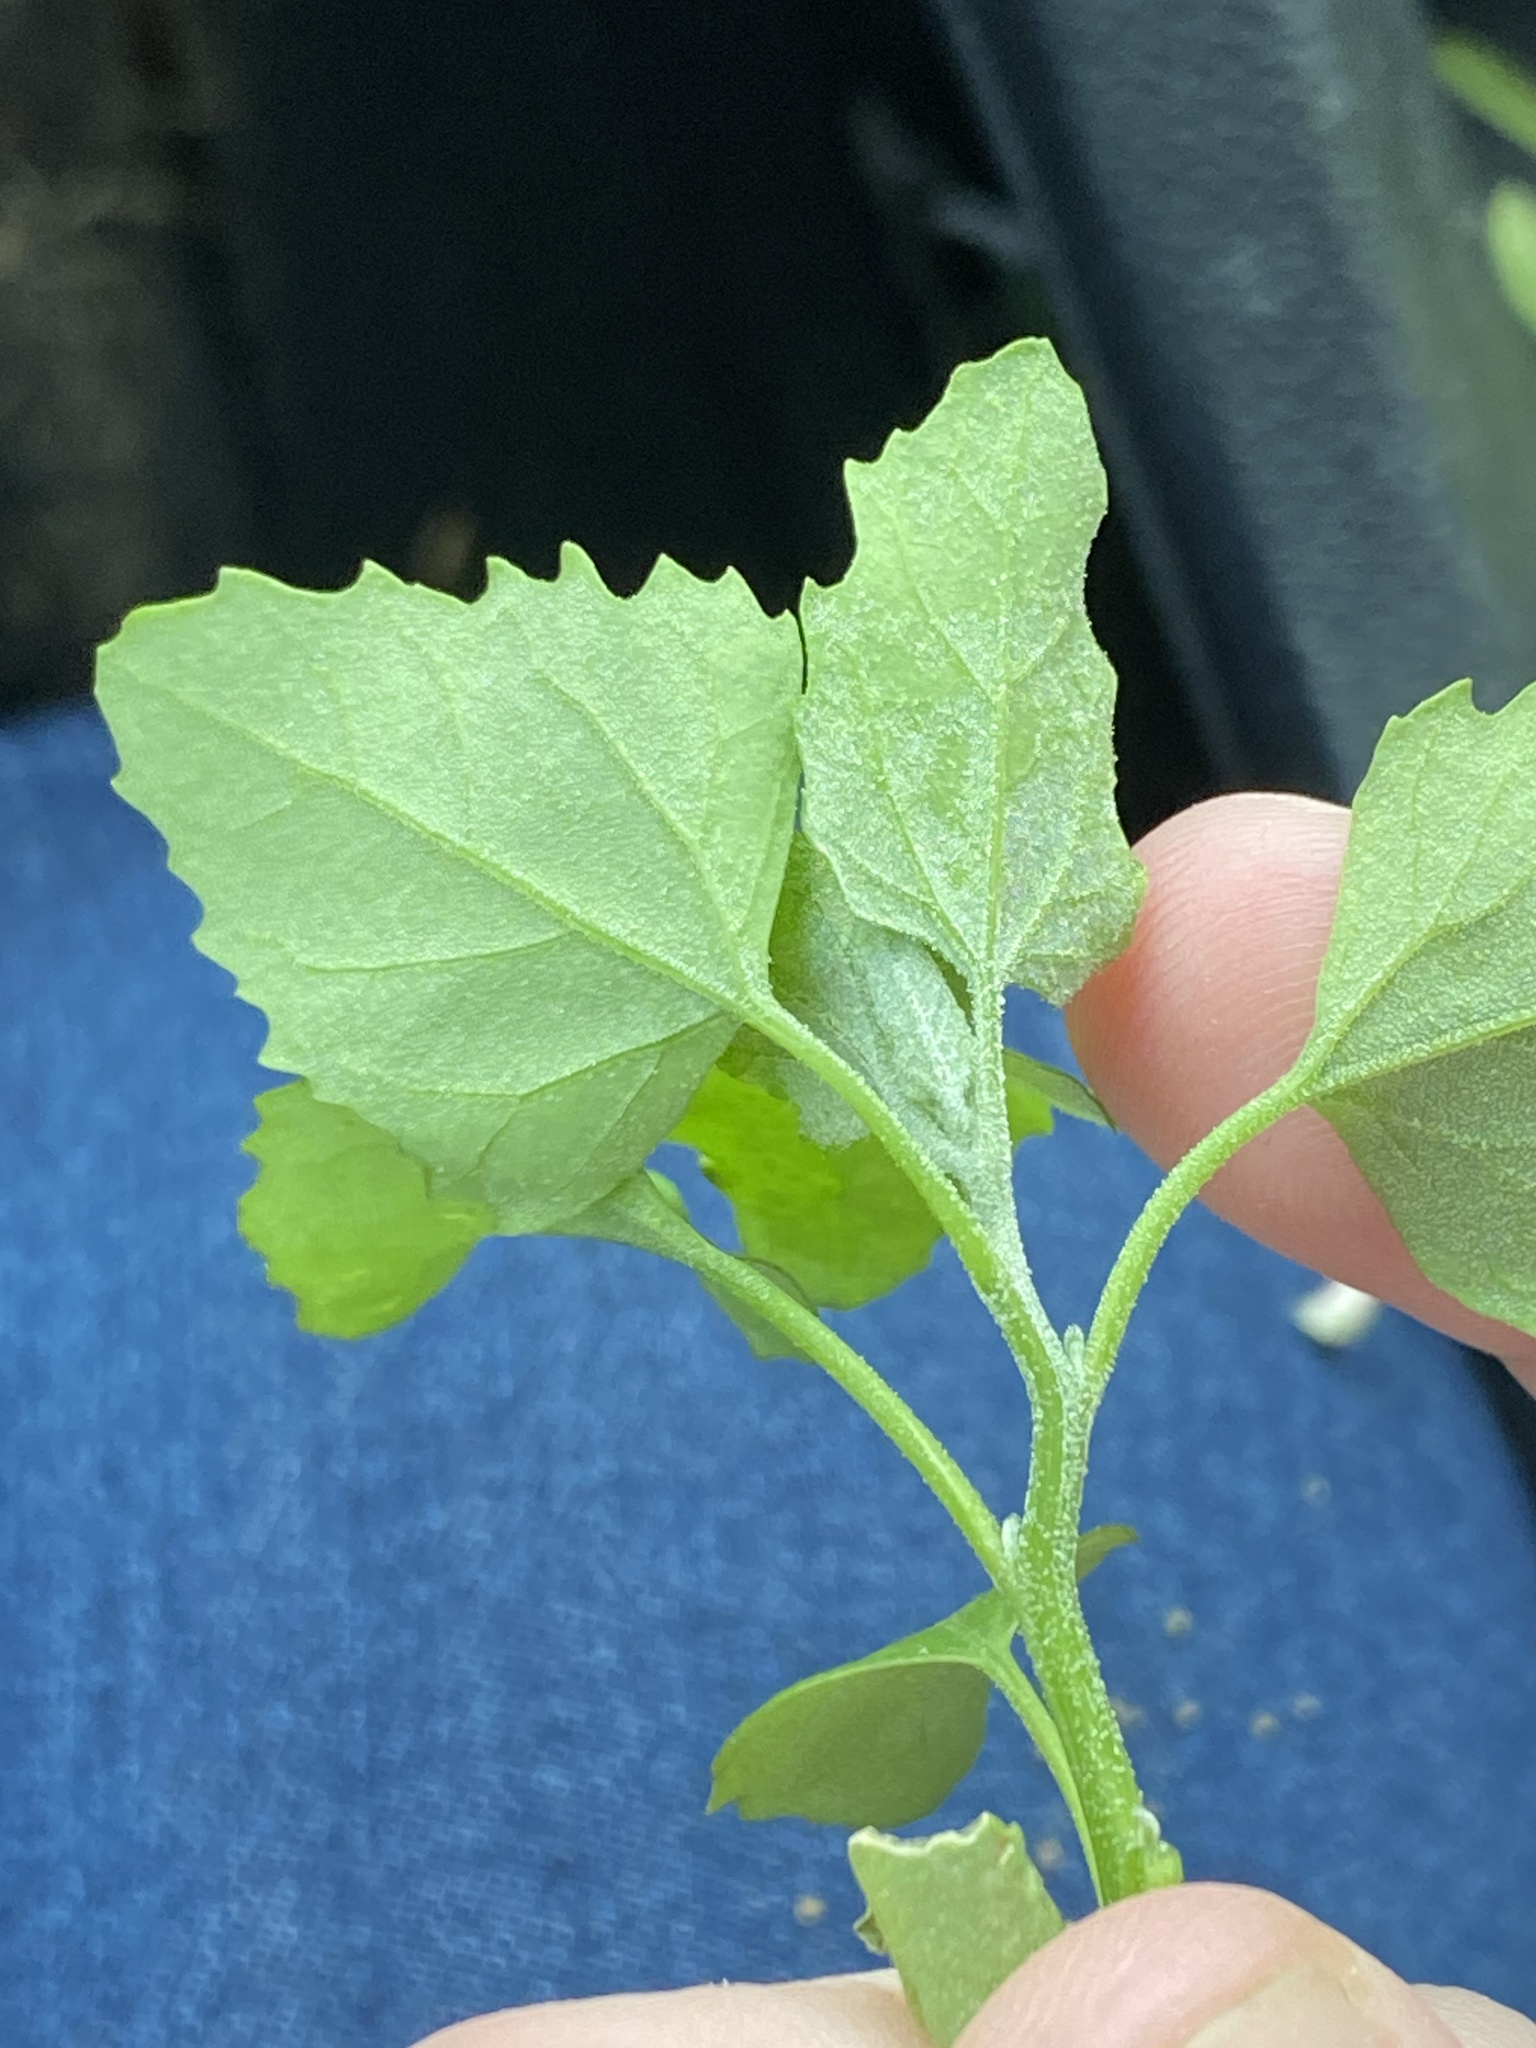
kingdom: Plantae
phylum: Tracheophyta
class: Magnoliopsida
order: Caryophyllales
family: Amaranthaceae
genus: Chenopodium
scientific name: Chenopodium album
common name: Fat-hen
